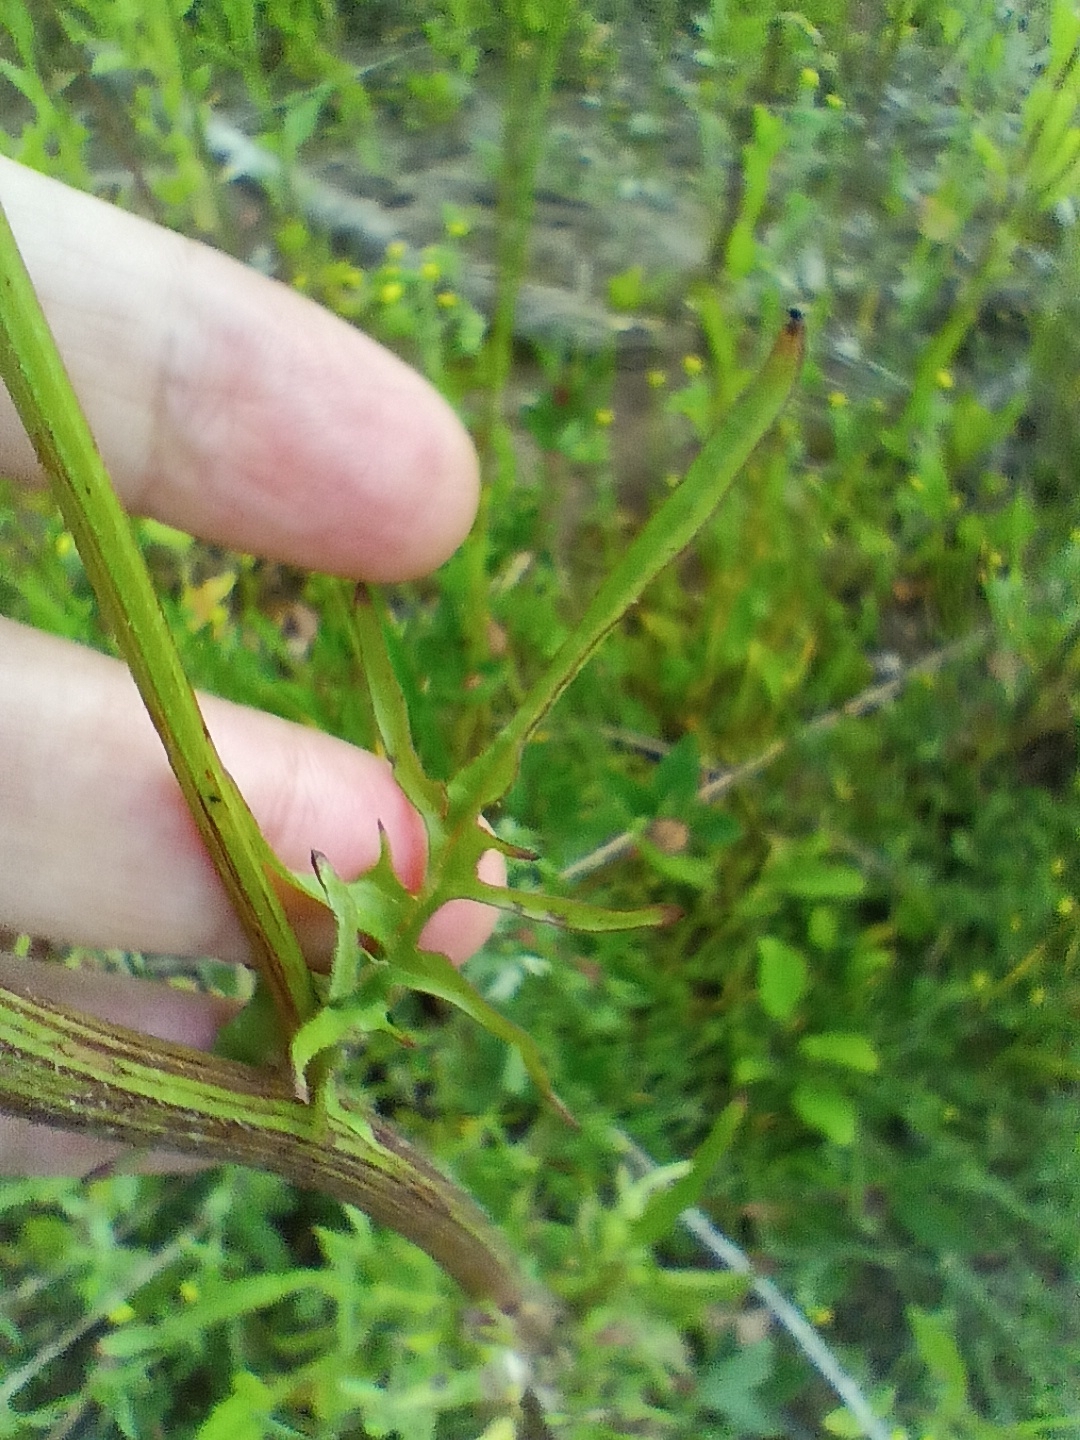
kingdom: Plantae
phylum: Tracheophyta
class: Magnoliopsida
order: Asterales
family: Asteraceae
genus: Crepis
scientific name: Crepis biennis
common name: Rough hawk's-beard
